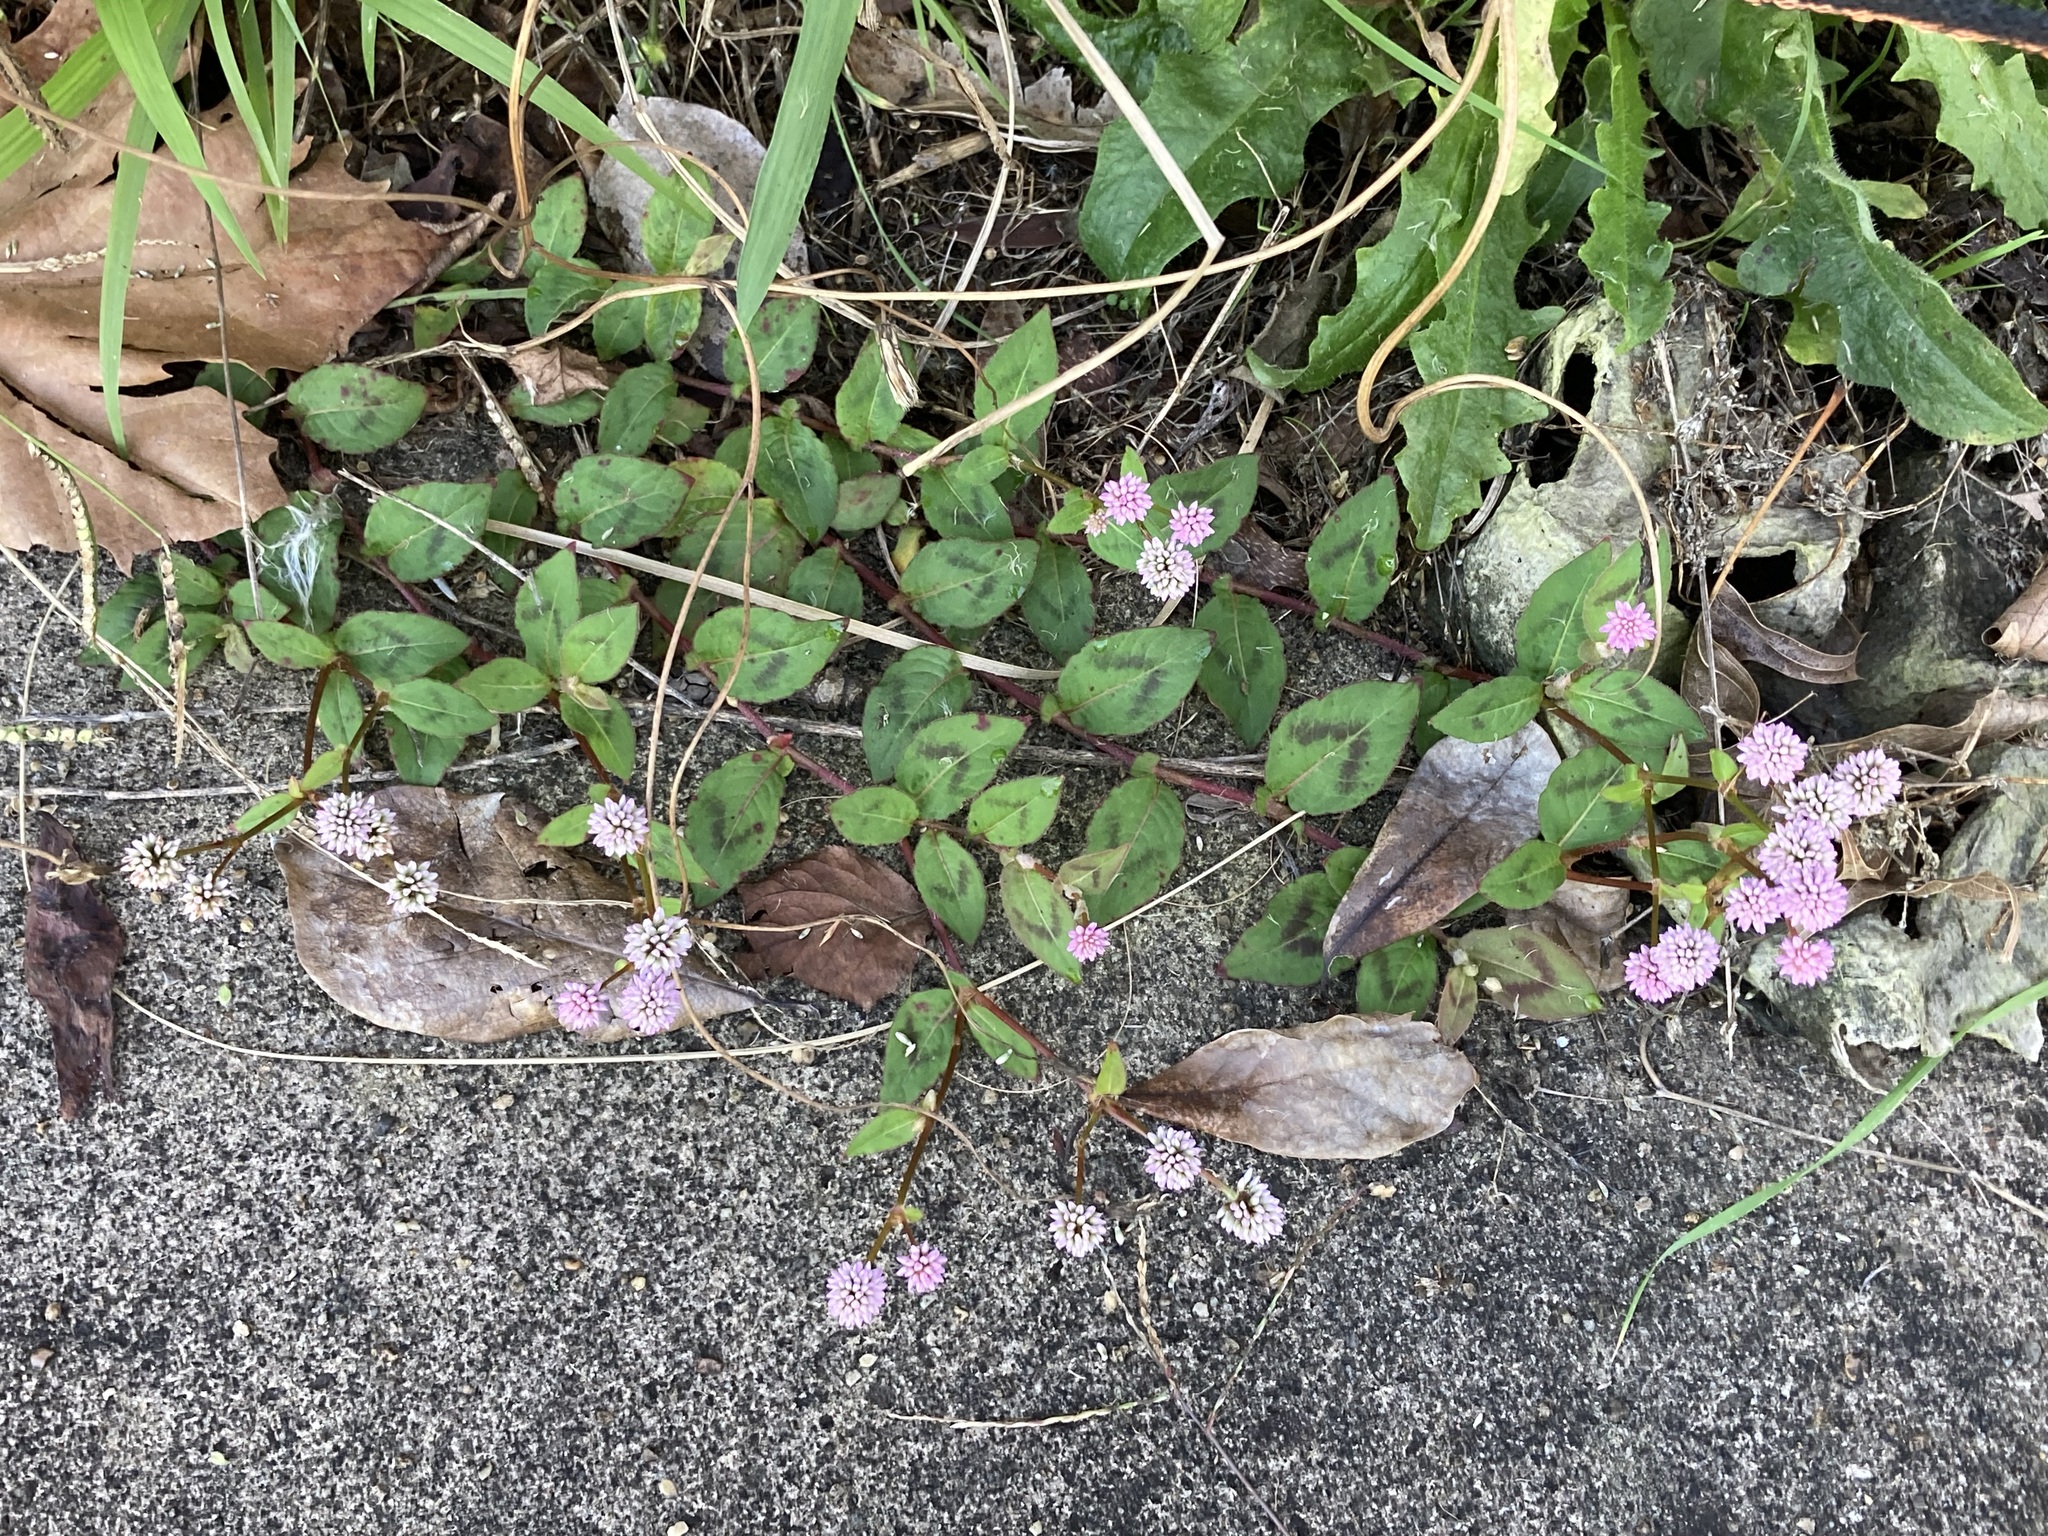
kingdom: Plantae
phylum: Tracheophyta
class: Magnoliopsida
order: Caryophyllales
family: Polygonaceae
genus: Persicaria
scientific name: Persicaria capitata
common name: Pinkhead smartweed
